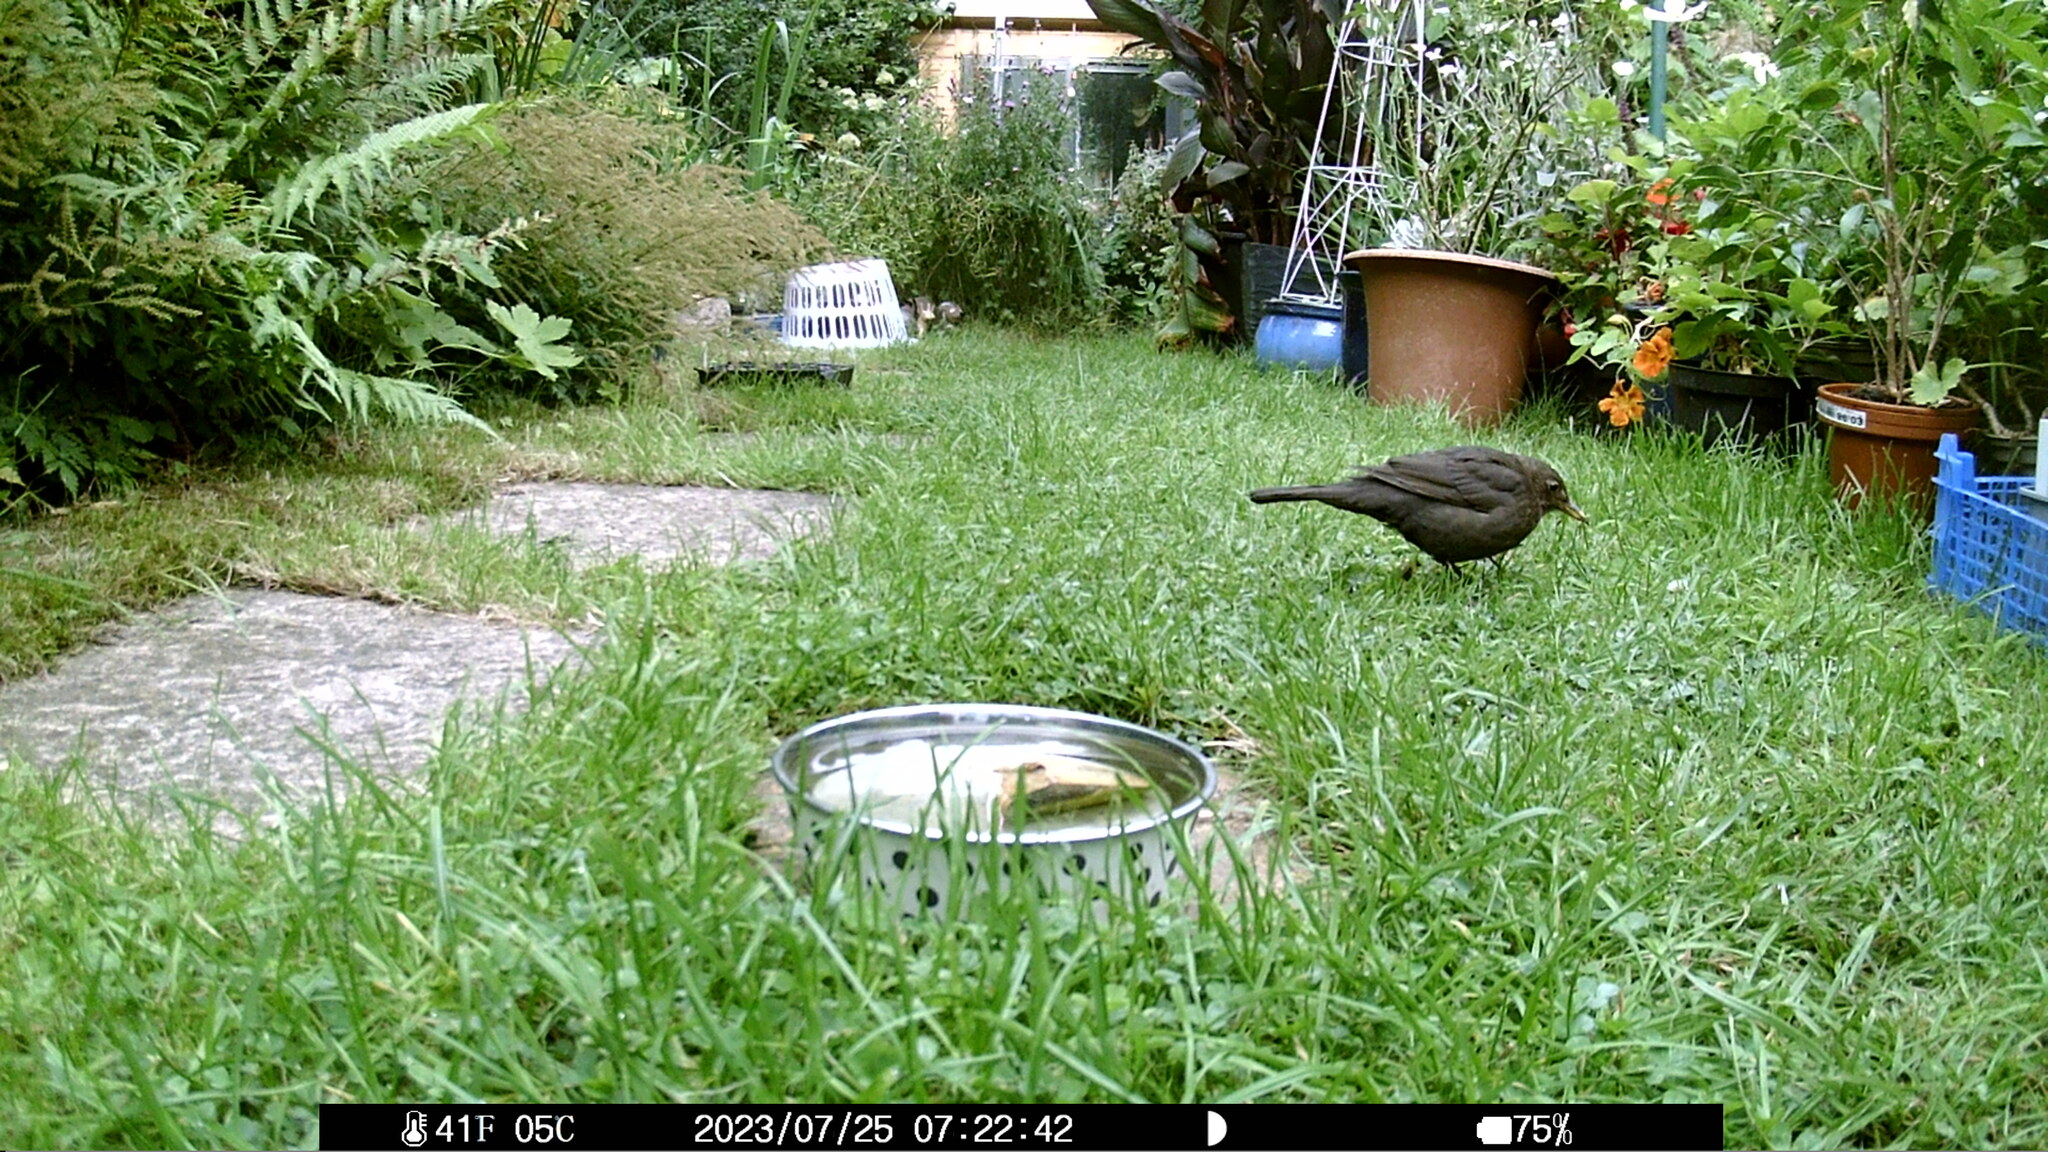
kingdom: Animalia
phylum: Chordata
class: Aves
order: Passeriformes
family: Turdidae
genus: Turdus
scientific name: Turdus merula
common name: Common blackbird
